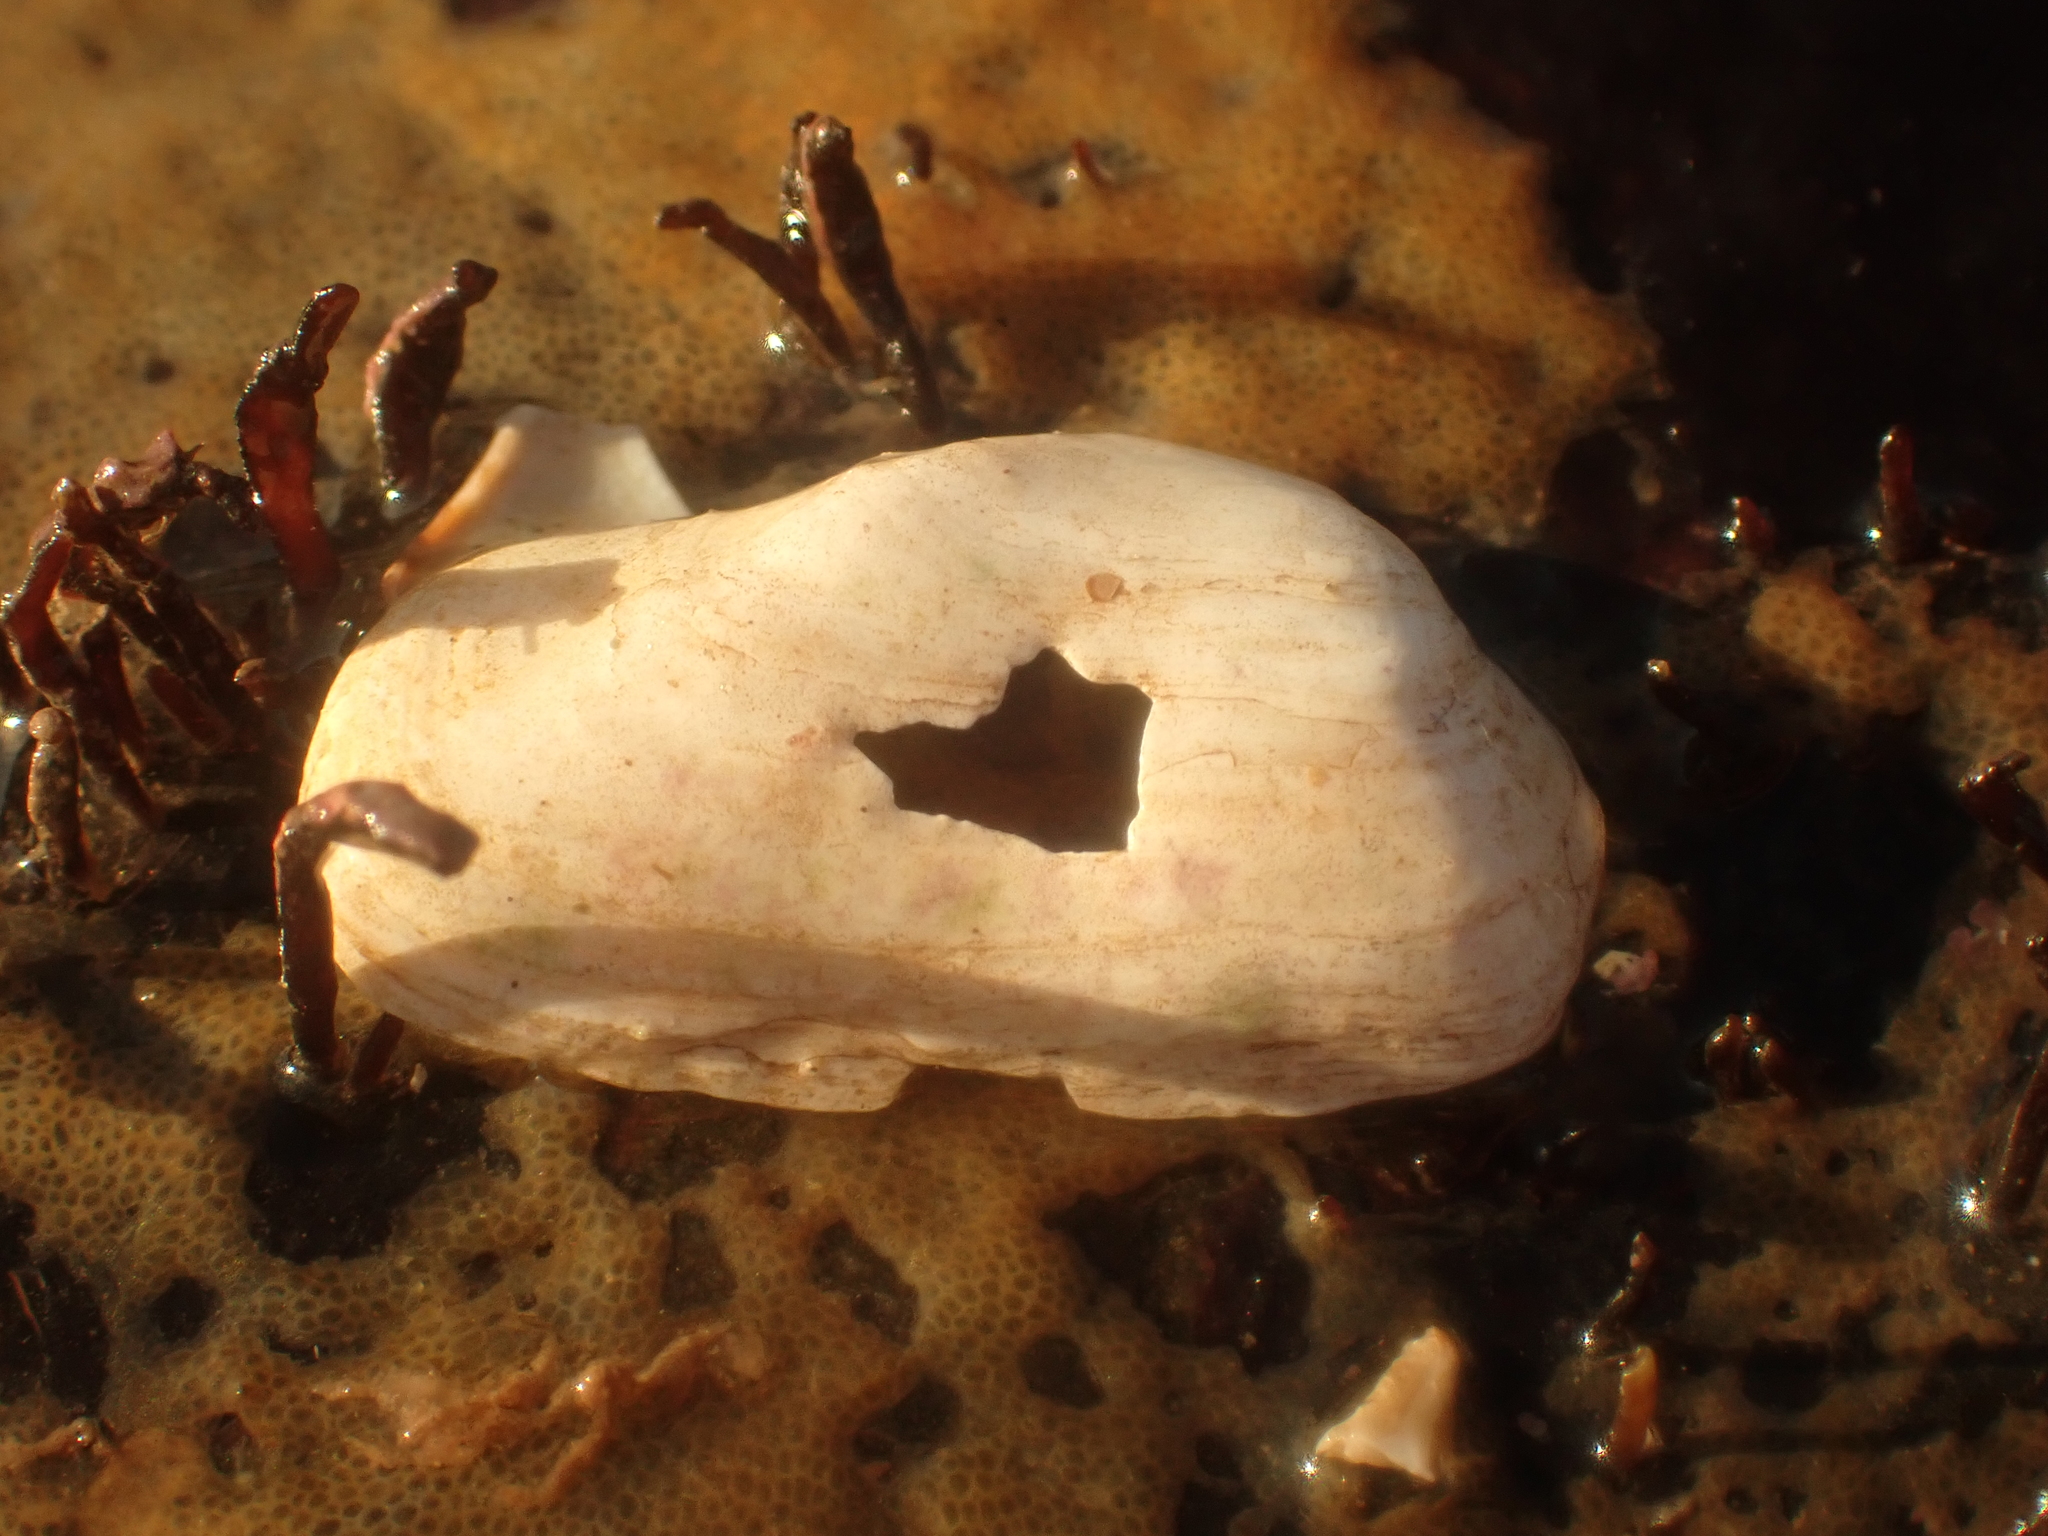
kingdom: Animalia
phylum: Mollusca
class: Bivalvia
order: Adapedonta
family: Hiatellidae
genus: Hiatella
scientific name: Hiatella arctica
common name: Arctic hiatella
